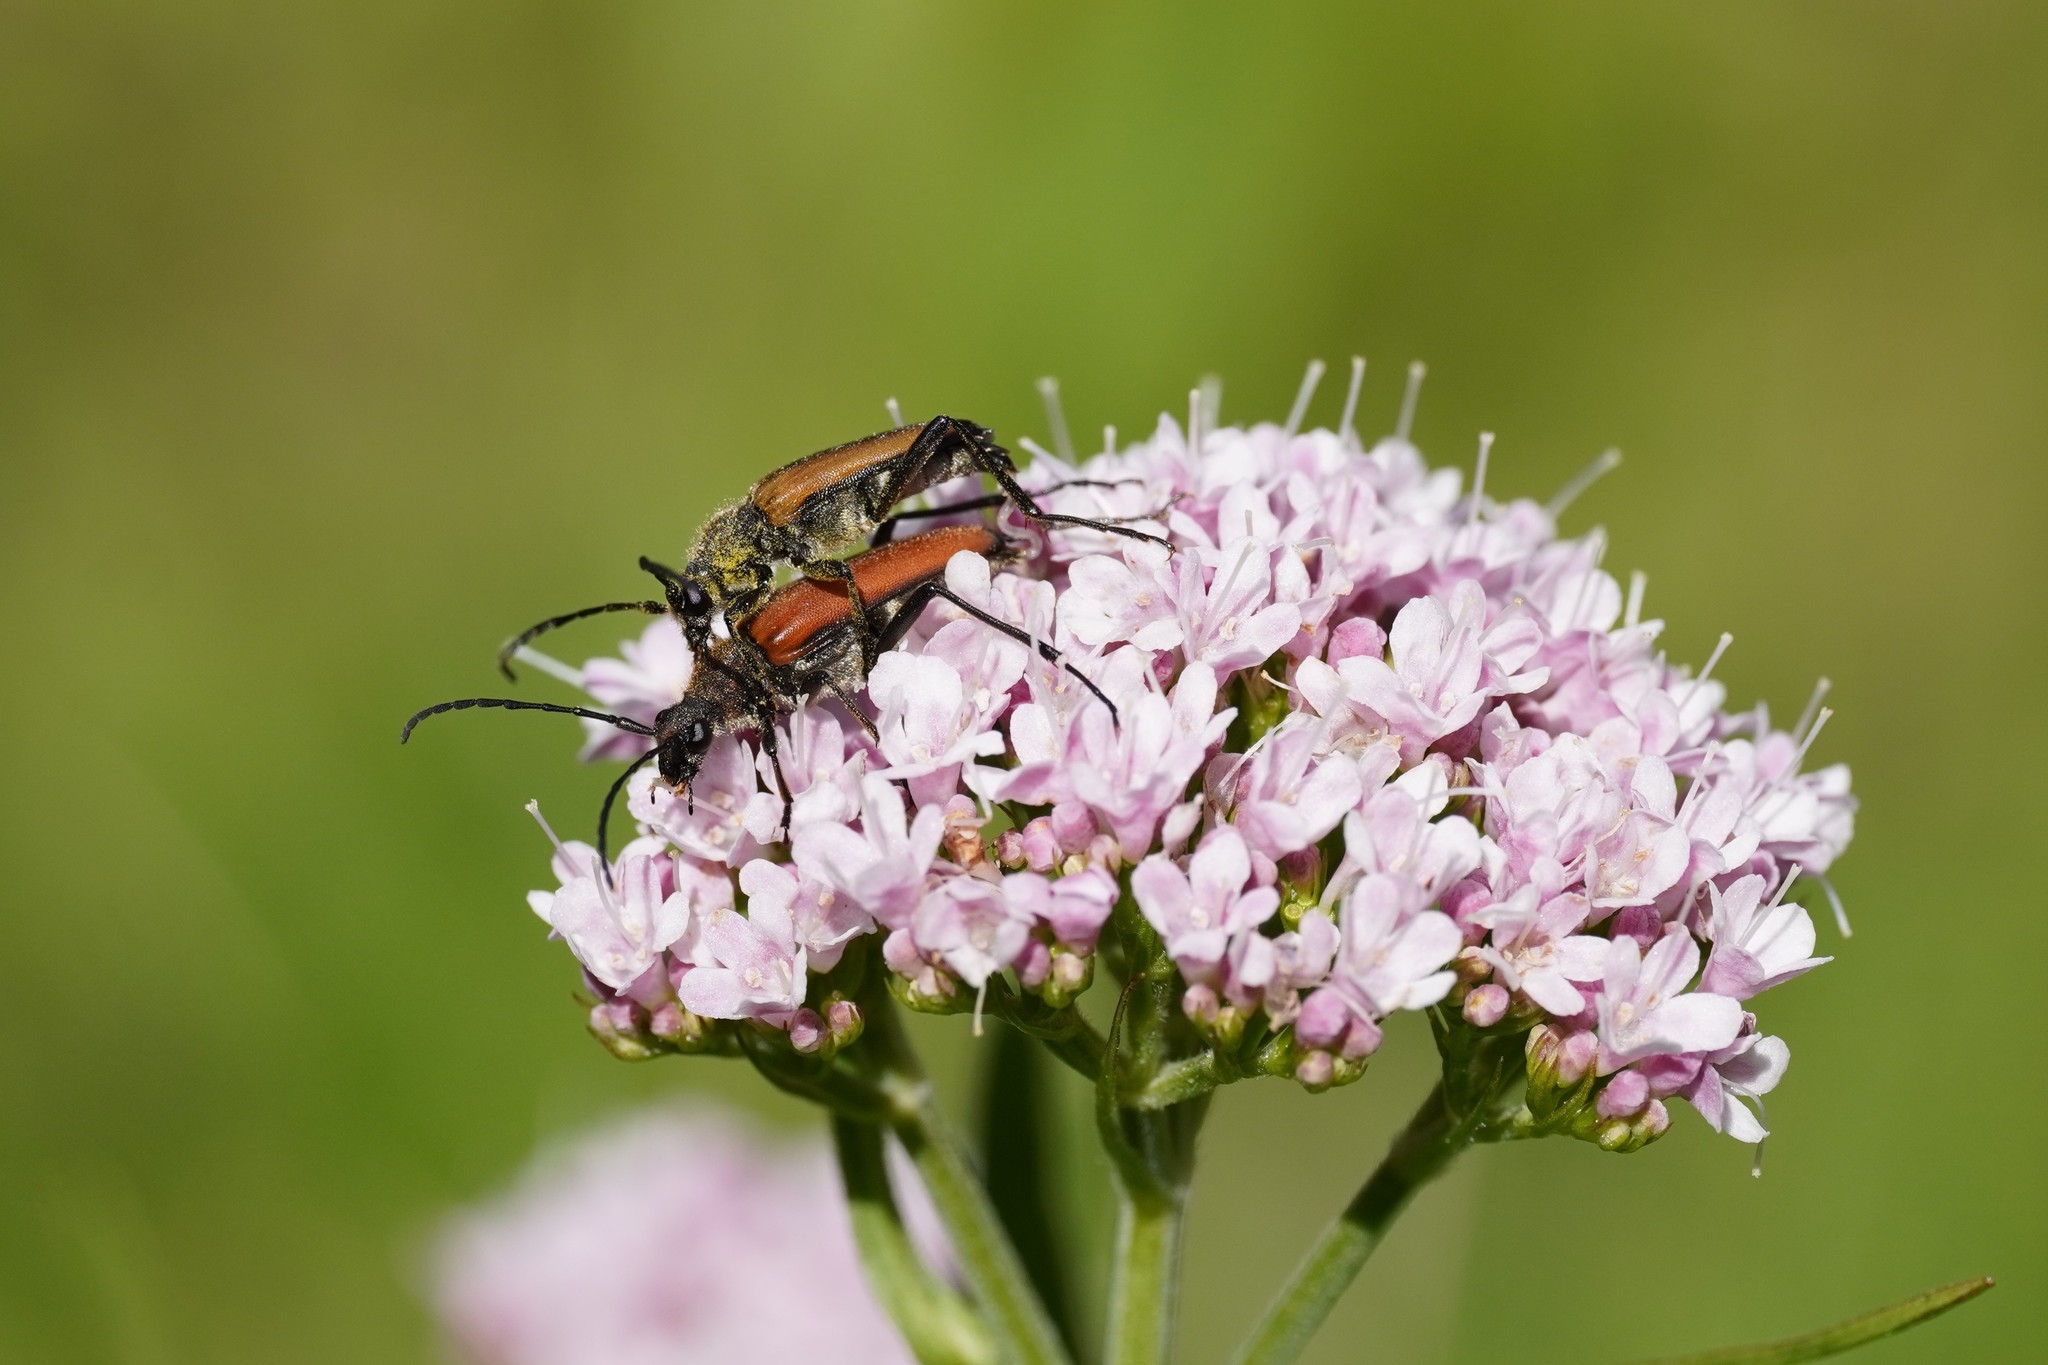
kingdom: Animalia
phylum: Arthropoda
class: Insecta
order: Coleoptera
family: Cerambycidae
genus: Anastrangalia
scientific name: Anastrangalia sanguinolenta
